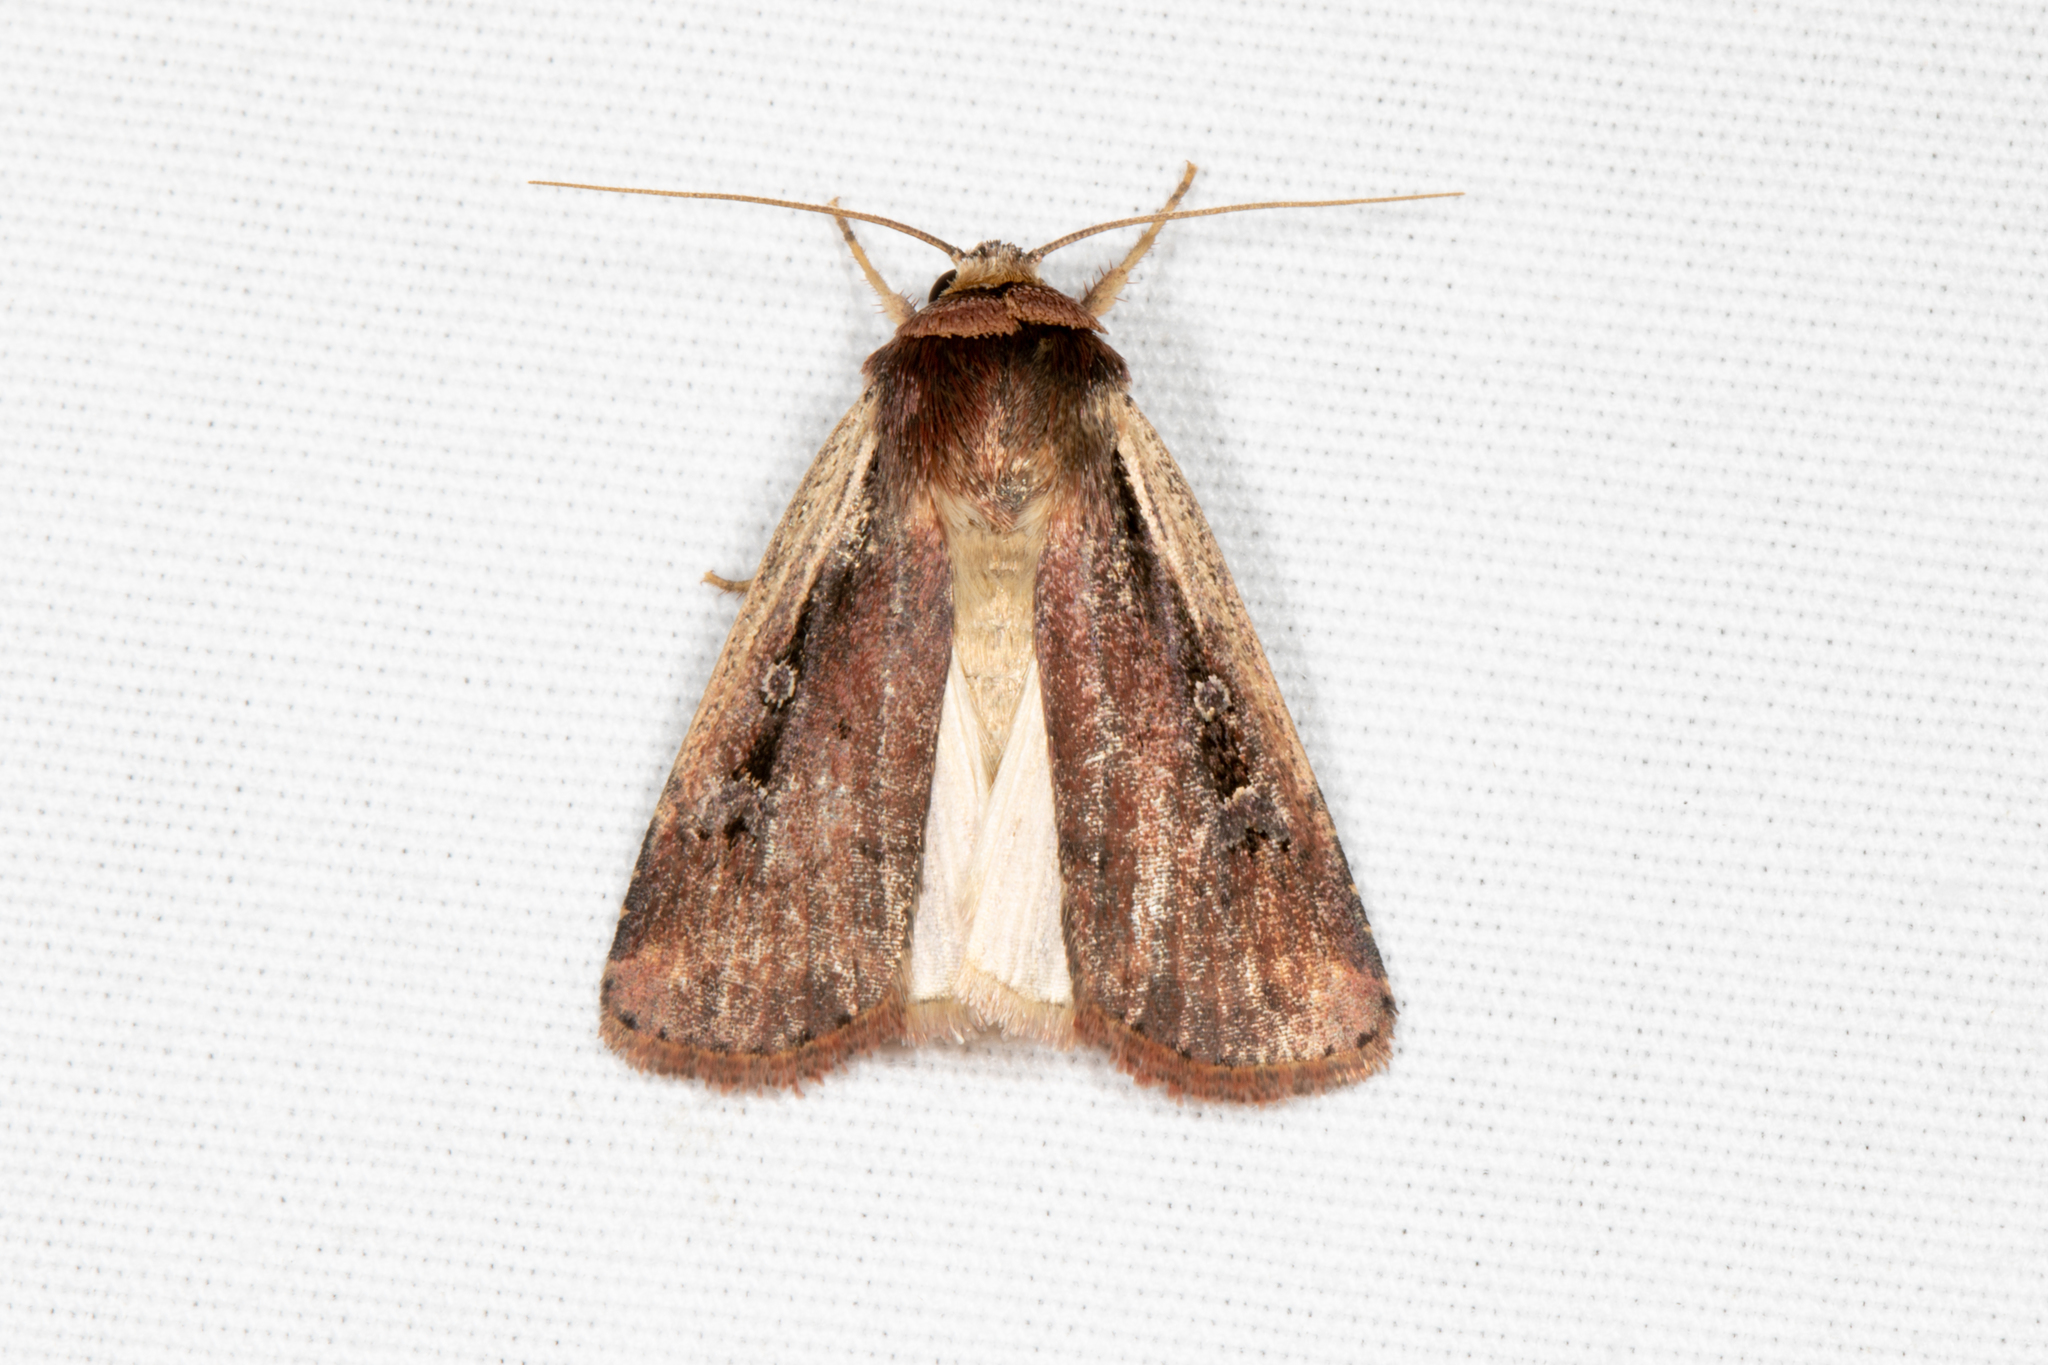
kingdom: Animalia
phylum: Arthropoda
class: Insecta
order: Lepidoptera
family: Noctuidae
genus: Ochropleura
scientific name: Ochropleura implecta
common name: Flame-shouldered dart
